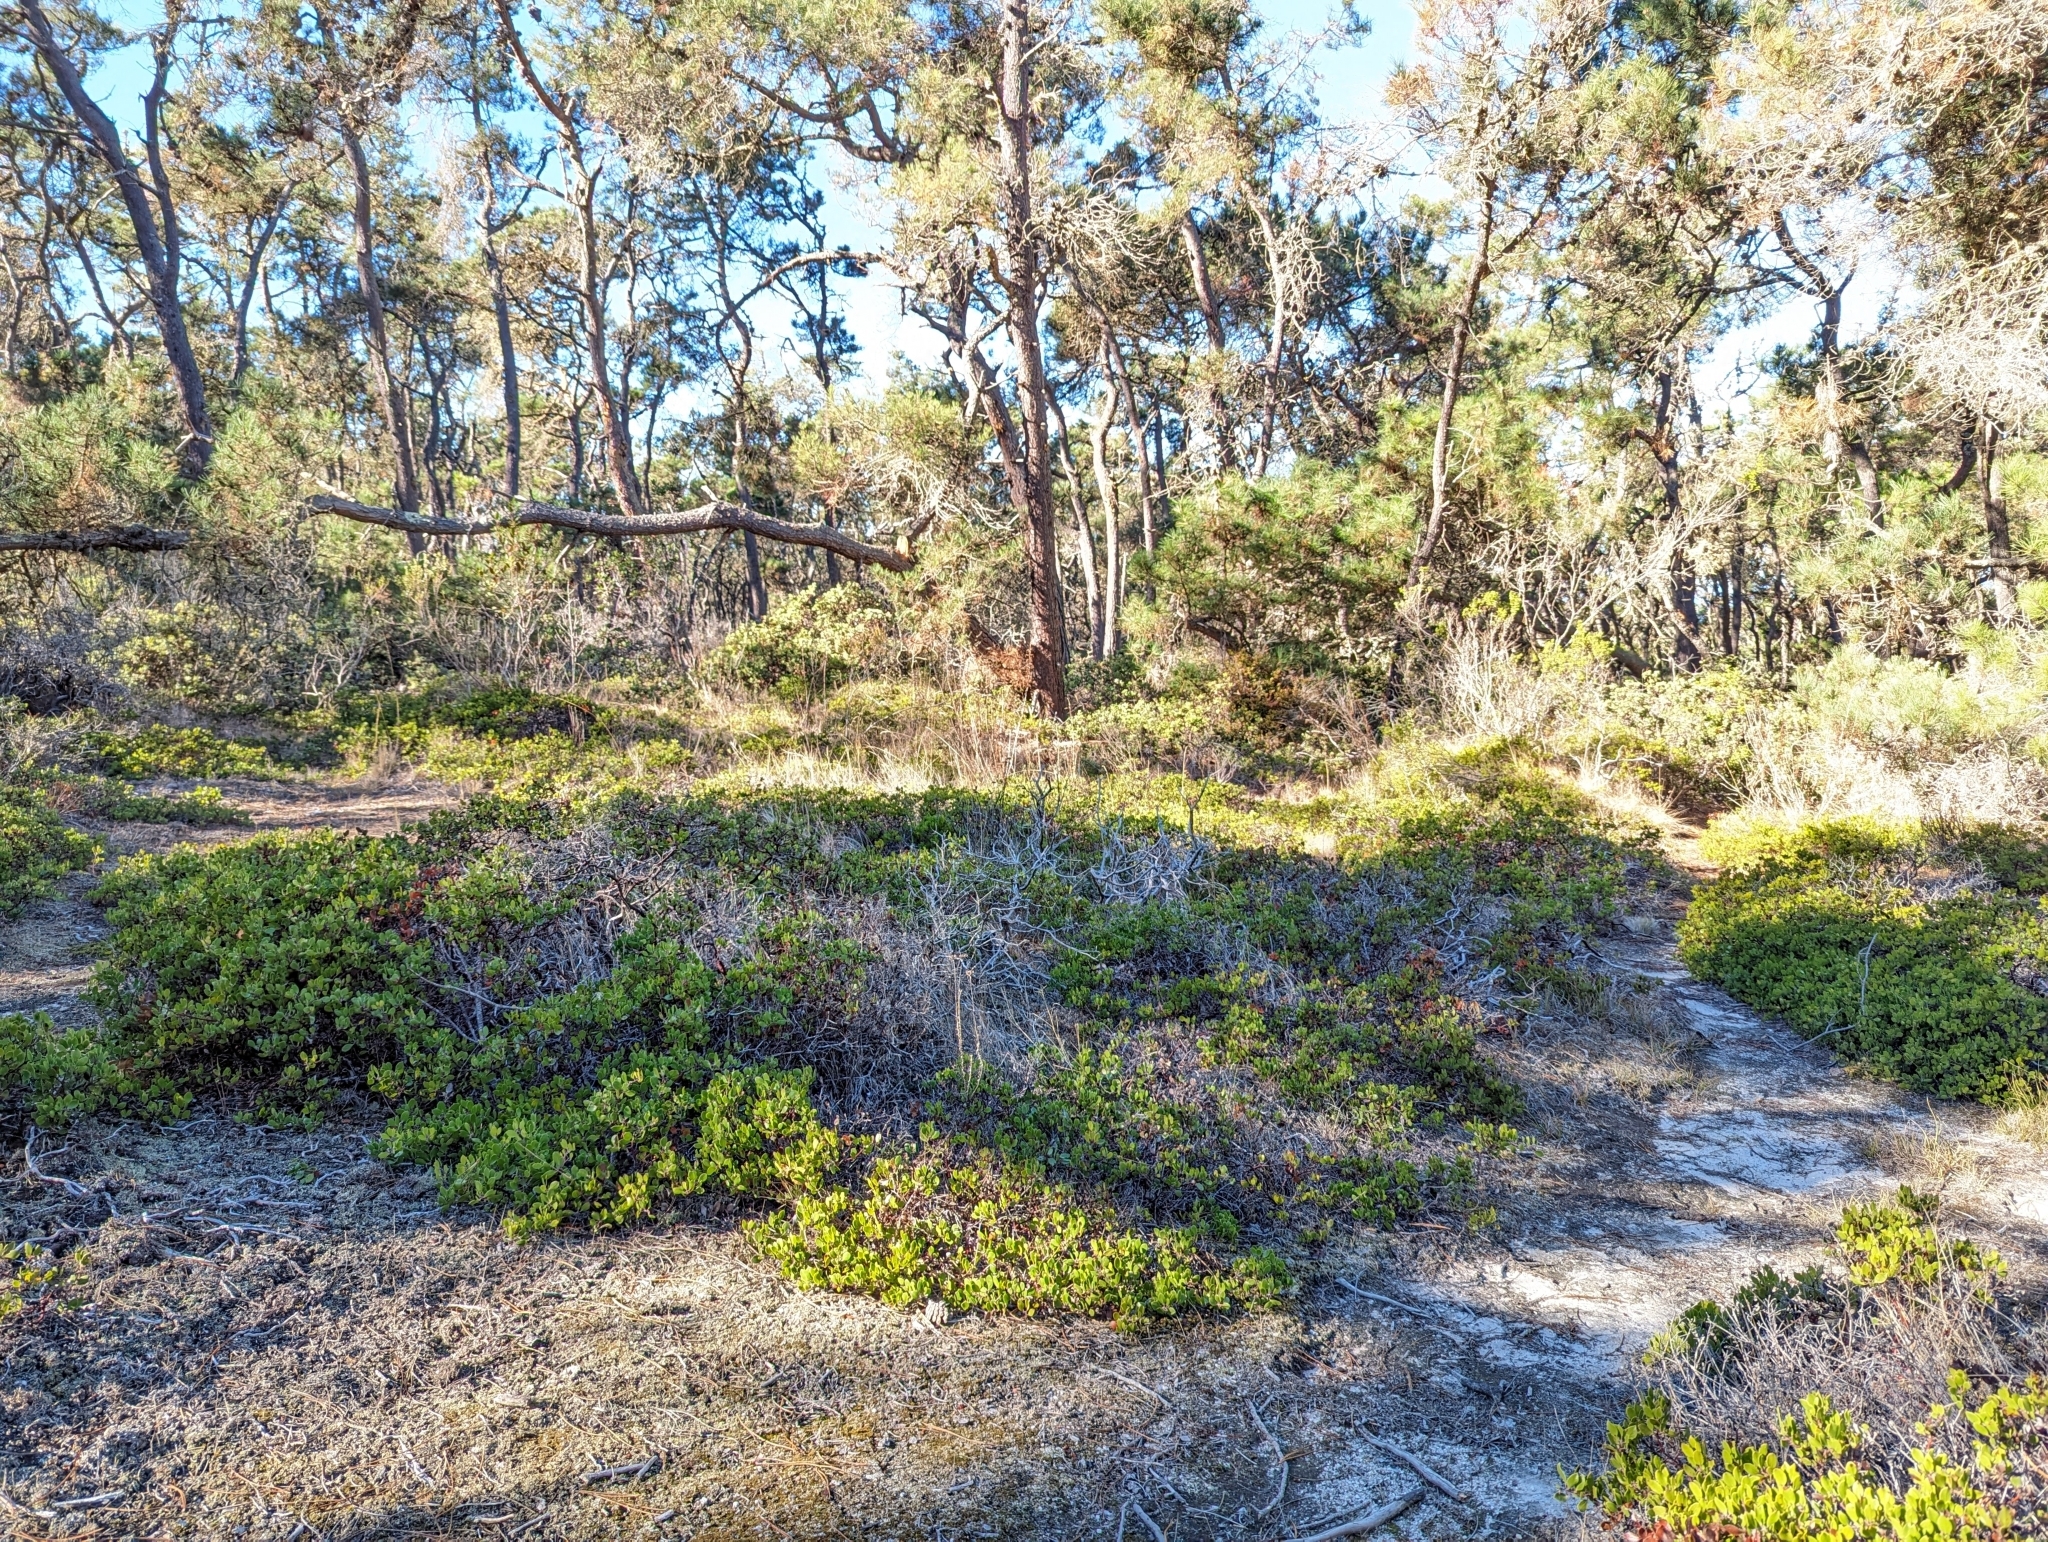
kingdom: Plantae
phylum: Tracheophyta
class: Magnoliopsida
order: Ericales
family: Ericaceae
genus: Arctostaphylos
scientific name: Arctostaphylos hookeri
